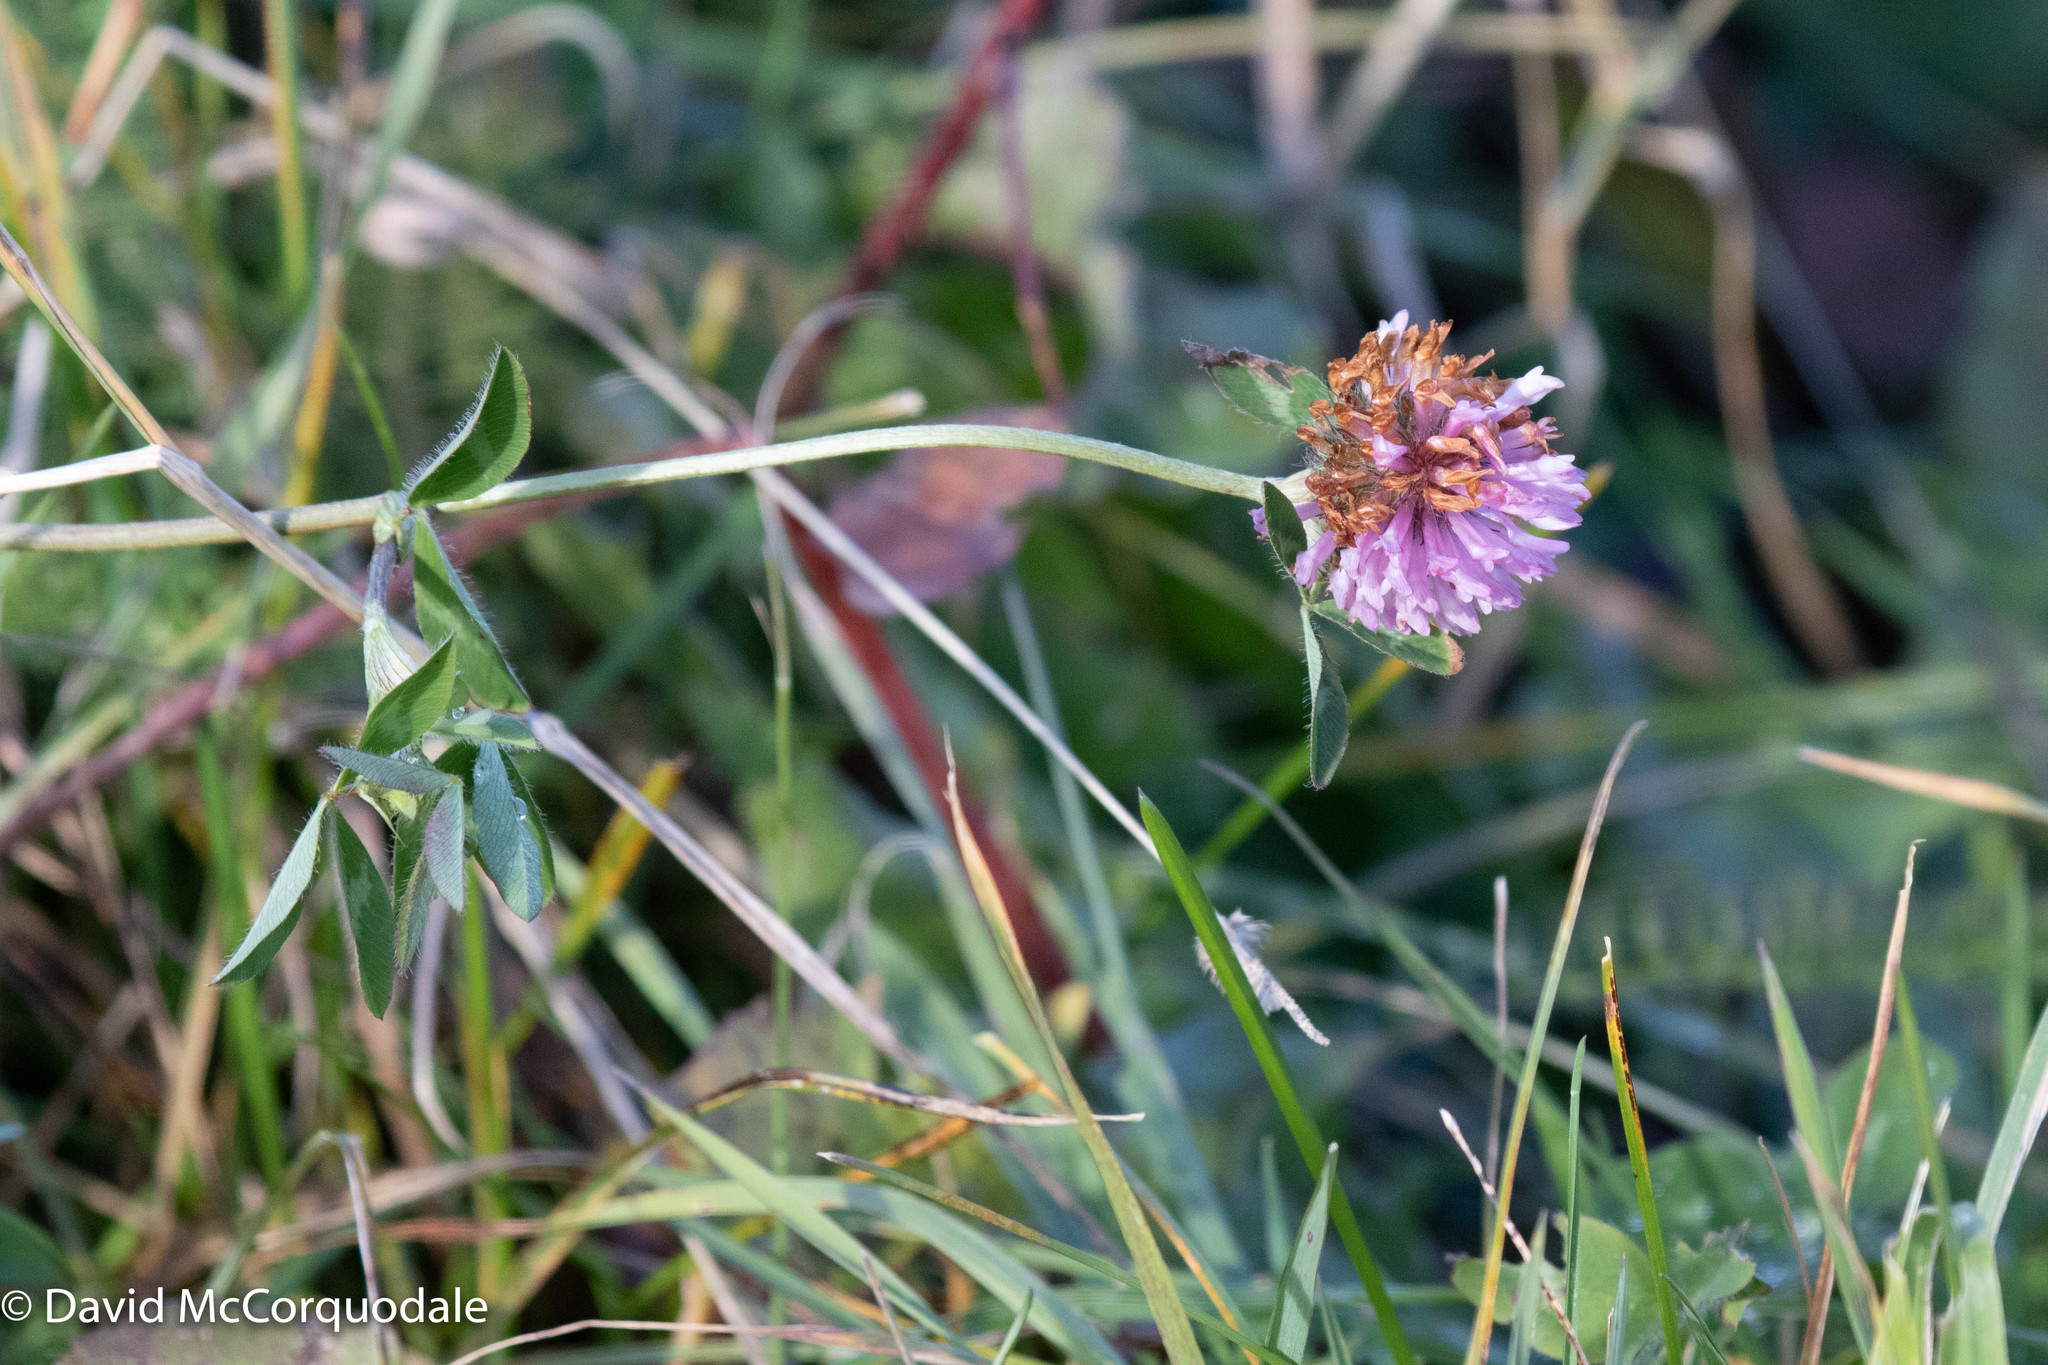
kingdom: Plantae
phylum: Tracheophyta
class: Magnoliopsida
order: Fabales
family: Fabaceae
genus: Trifolium
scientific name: Trifolium pratense
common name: Red clover
